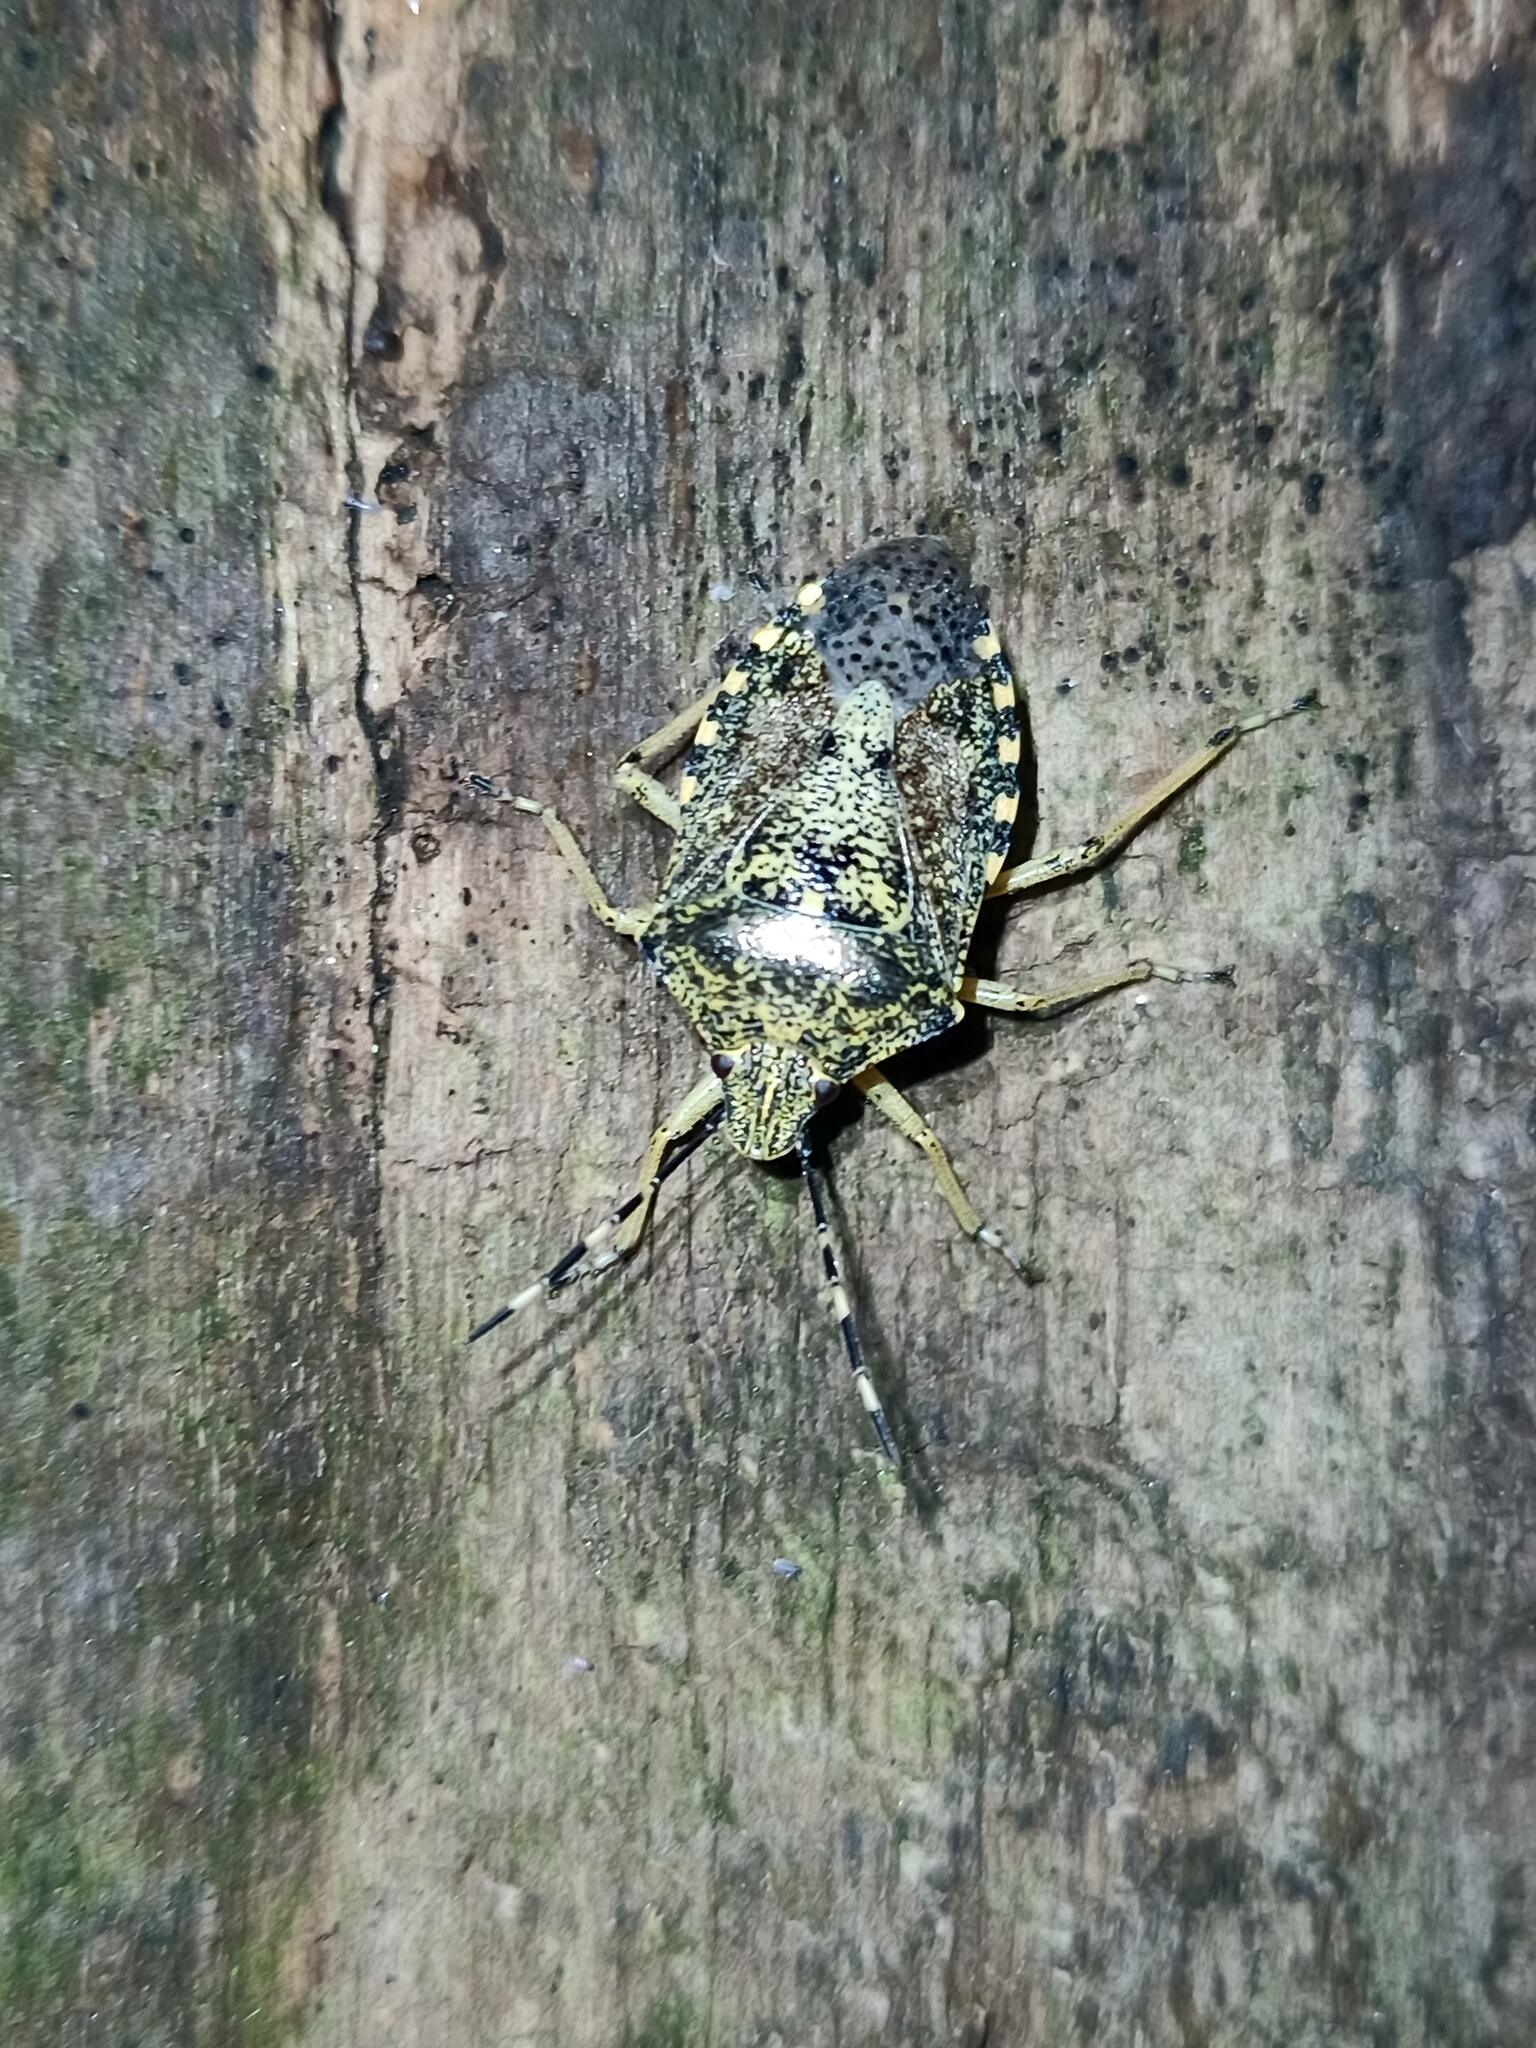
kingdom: Animalia
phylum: Arthropoda
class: Insecta
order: Hemiptera
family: Pentatomidae
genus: Rhaphigaster
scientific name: Rhaphigaster nebulosa
